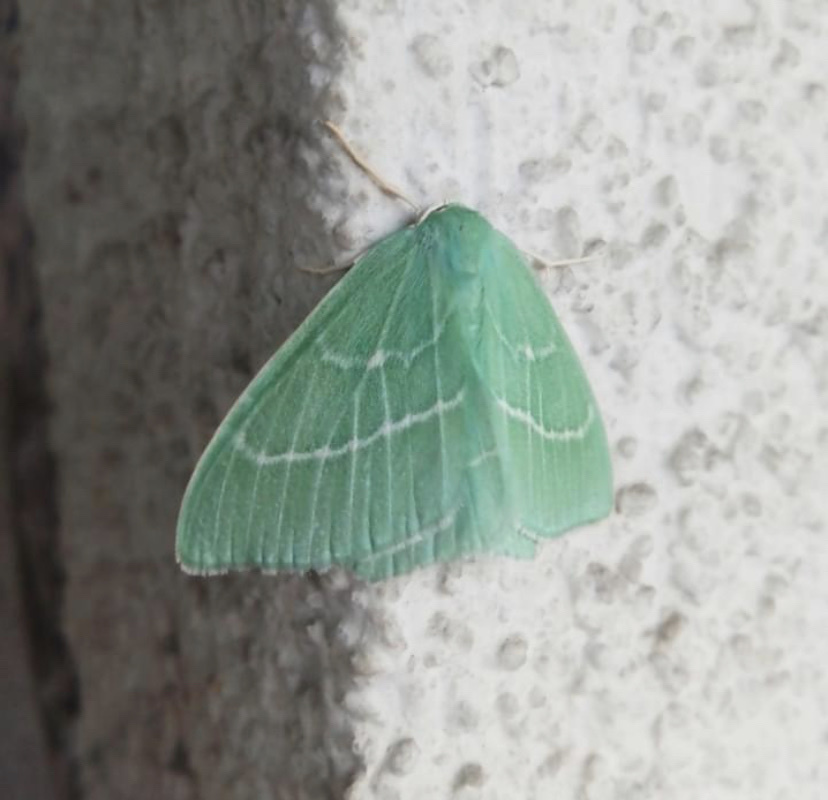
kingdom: Animalia
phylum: Arthropoda
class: Insecta
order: Lepidoptera
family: Geometridae
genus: Hemistola
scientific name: Hemistola chrysoprasaria
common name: Small emerald
